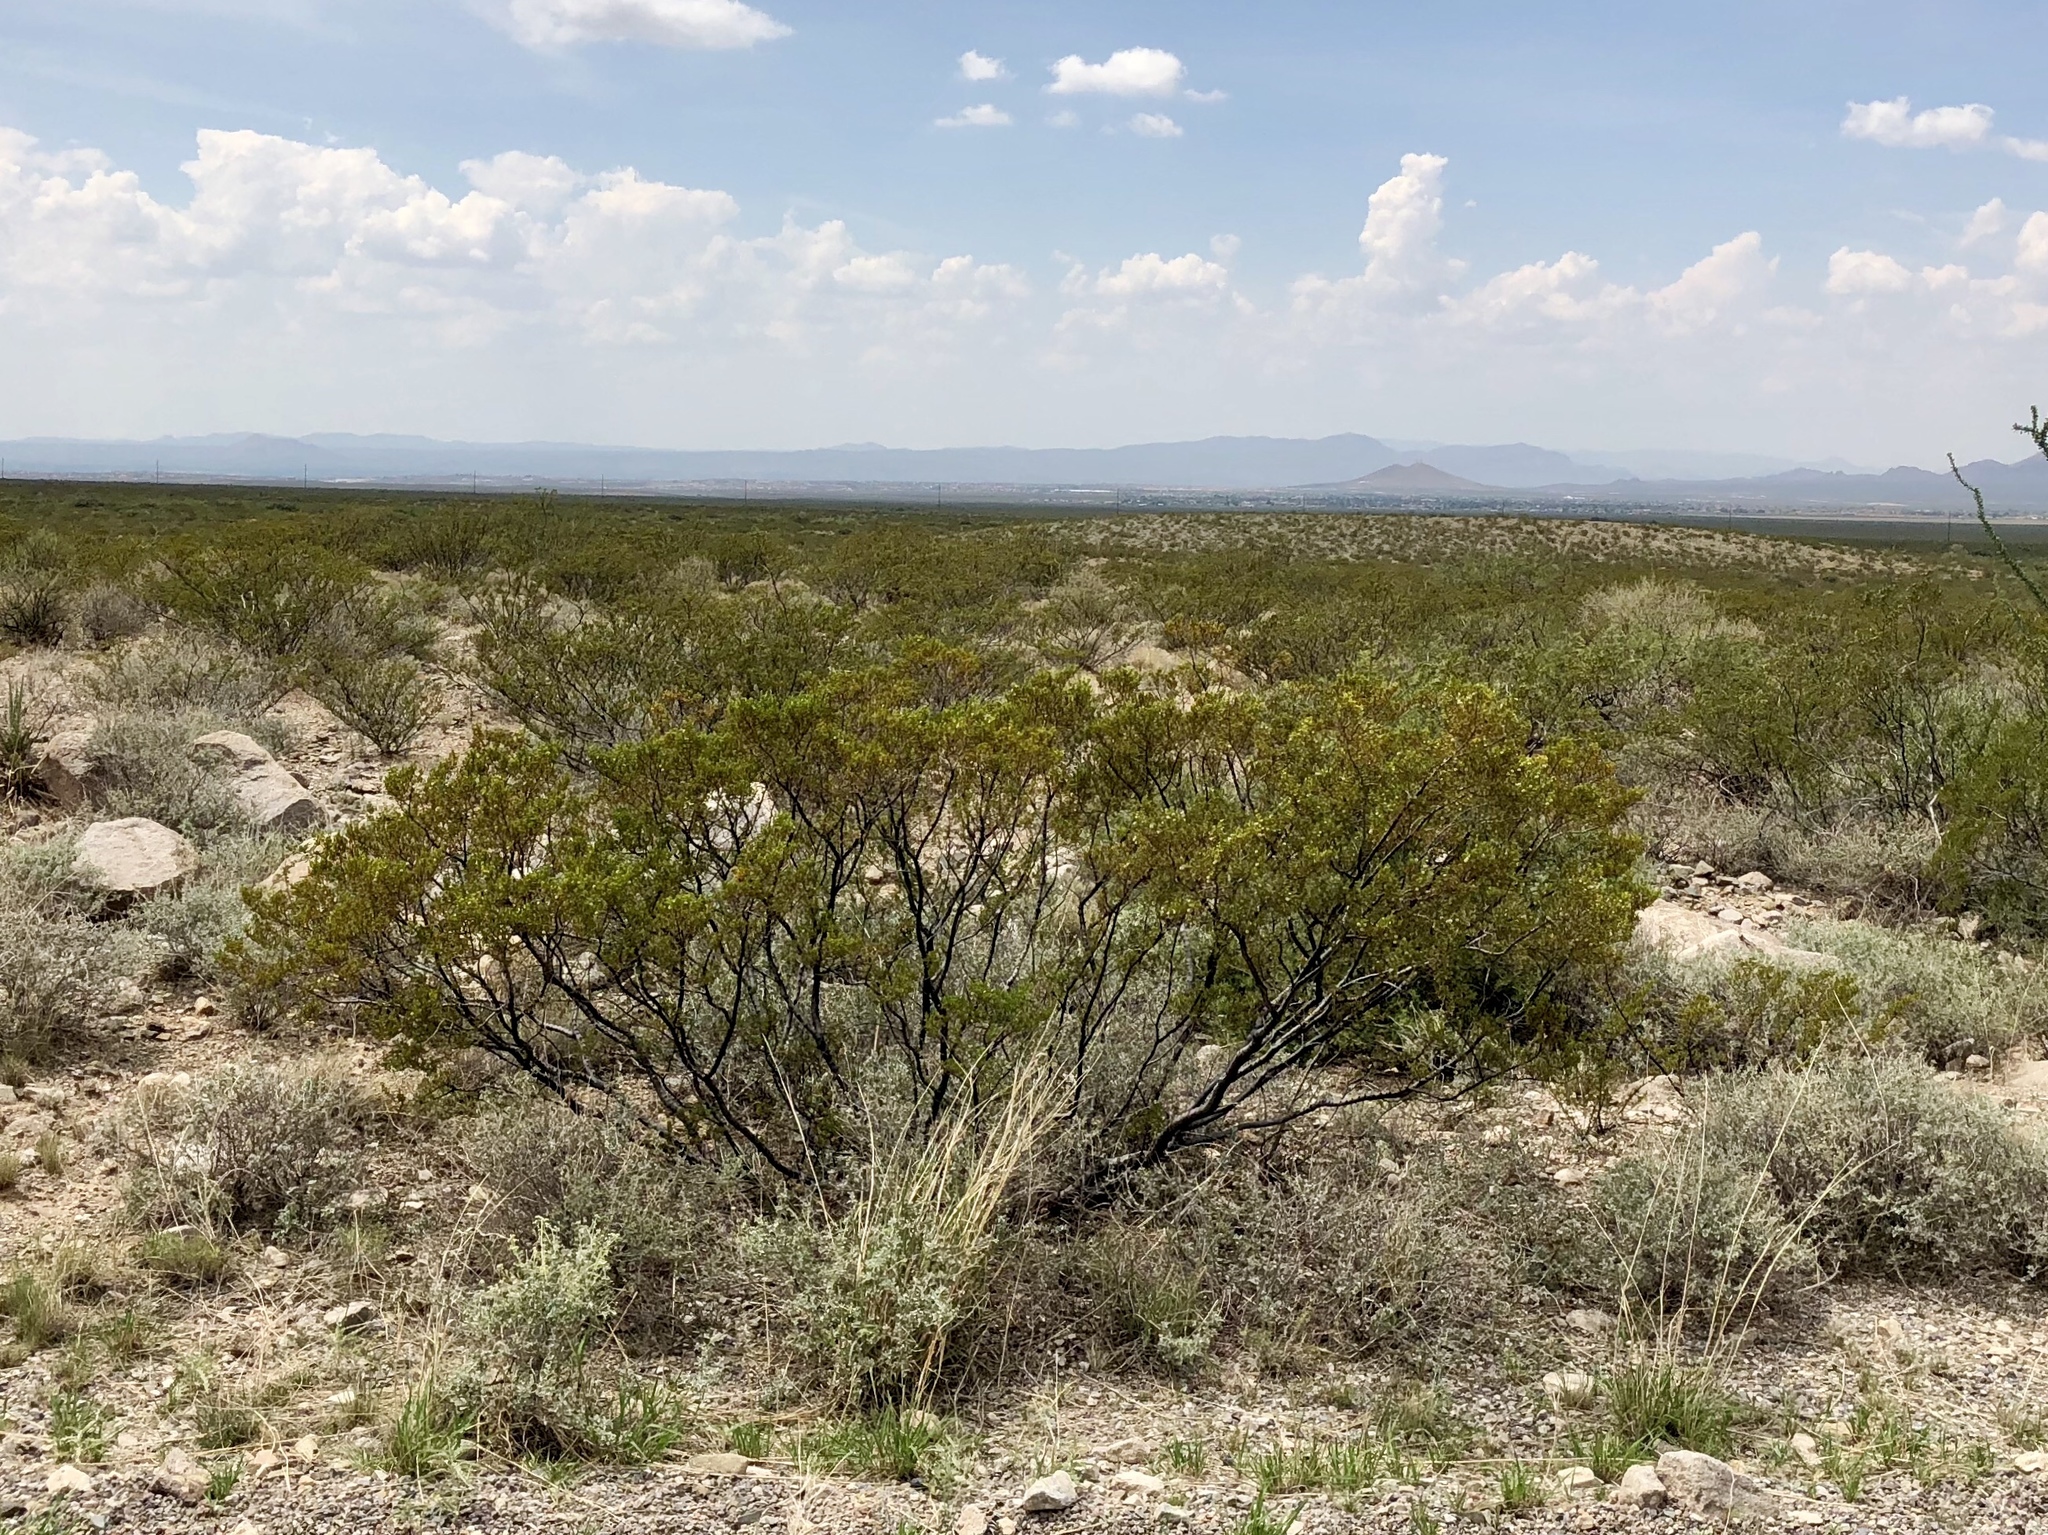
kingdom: Plantae
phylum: Tracheophyta
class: Magnoliopsida
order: Zygophyllales
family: Zygophyllaceae
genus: Larrea
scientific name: Larrea tridentata
